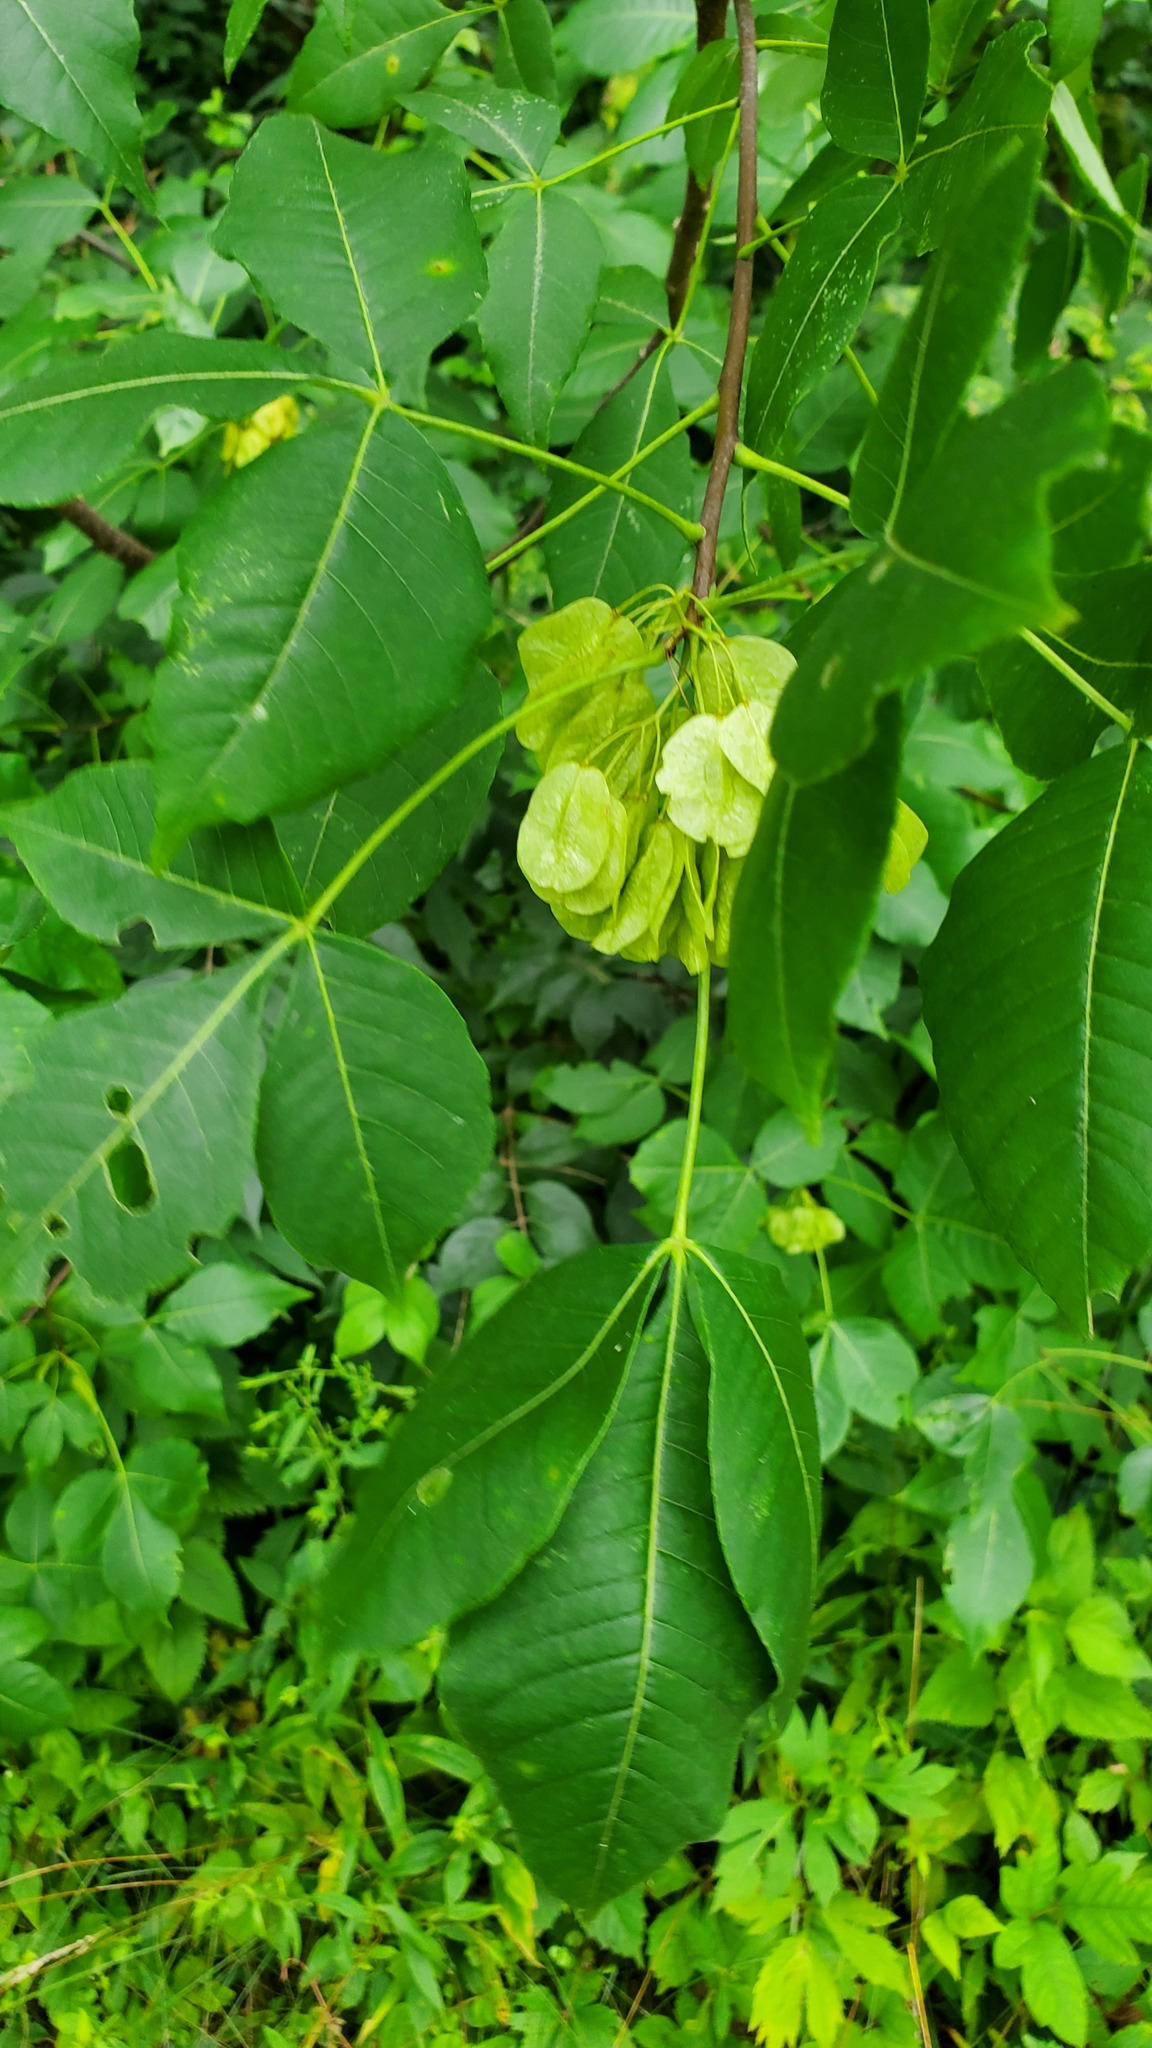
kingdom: Plantae
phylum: Tracheophyta
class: Magnoliopsida
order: Sapindales
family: Rutaceae
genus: Ptelea
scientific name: Ptelea trifoliata
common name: Common hop-tree
